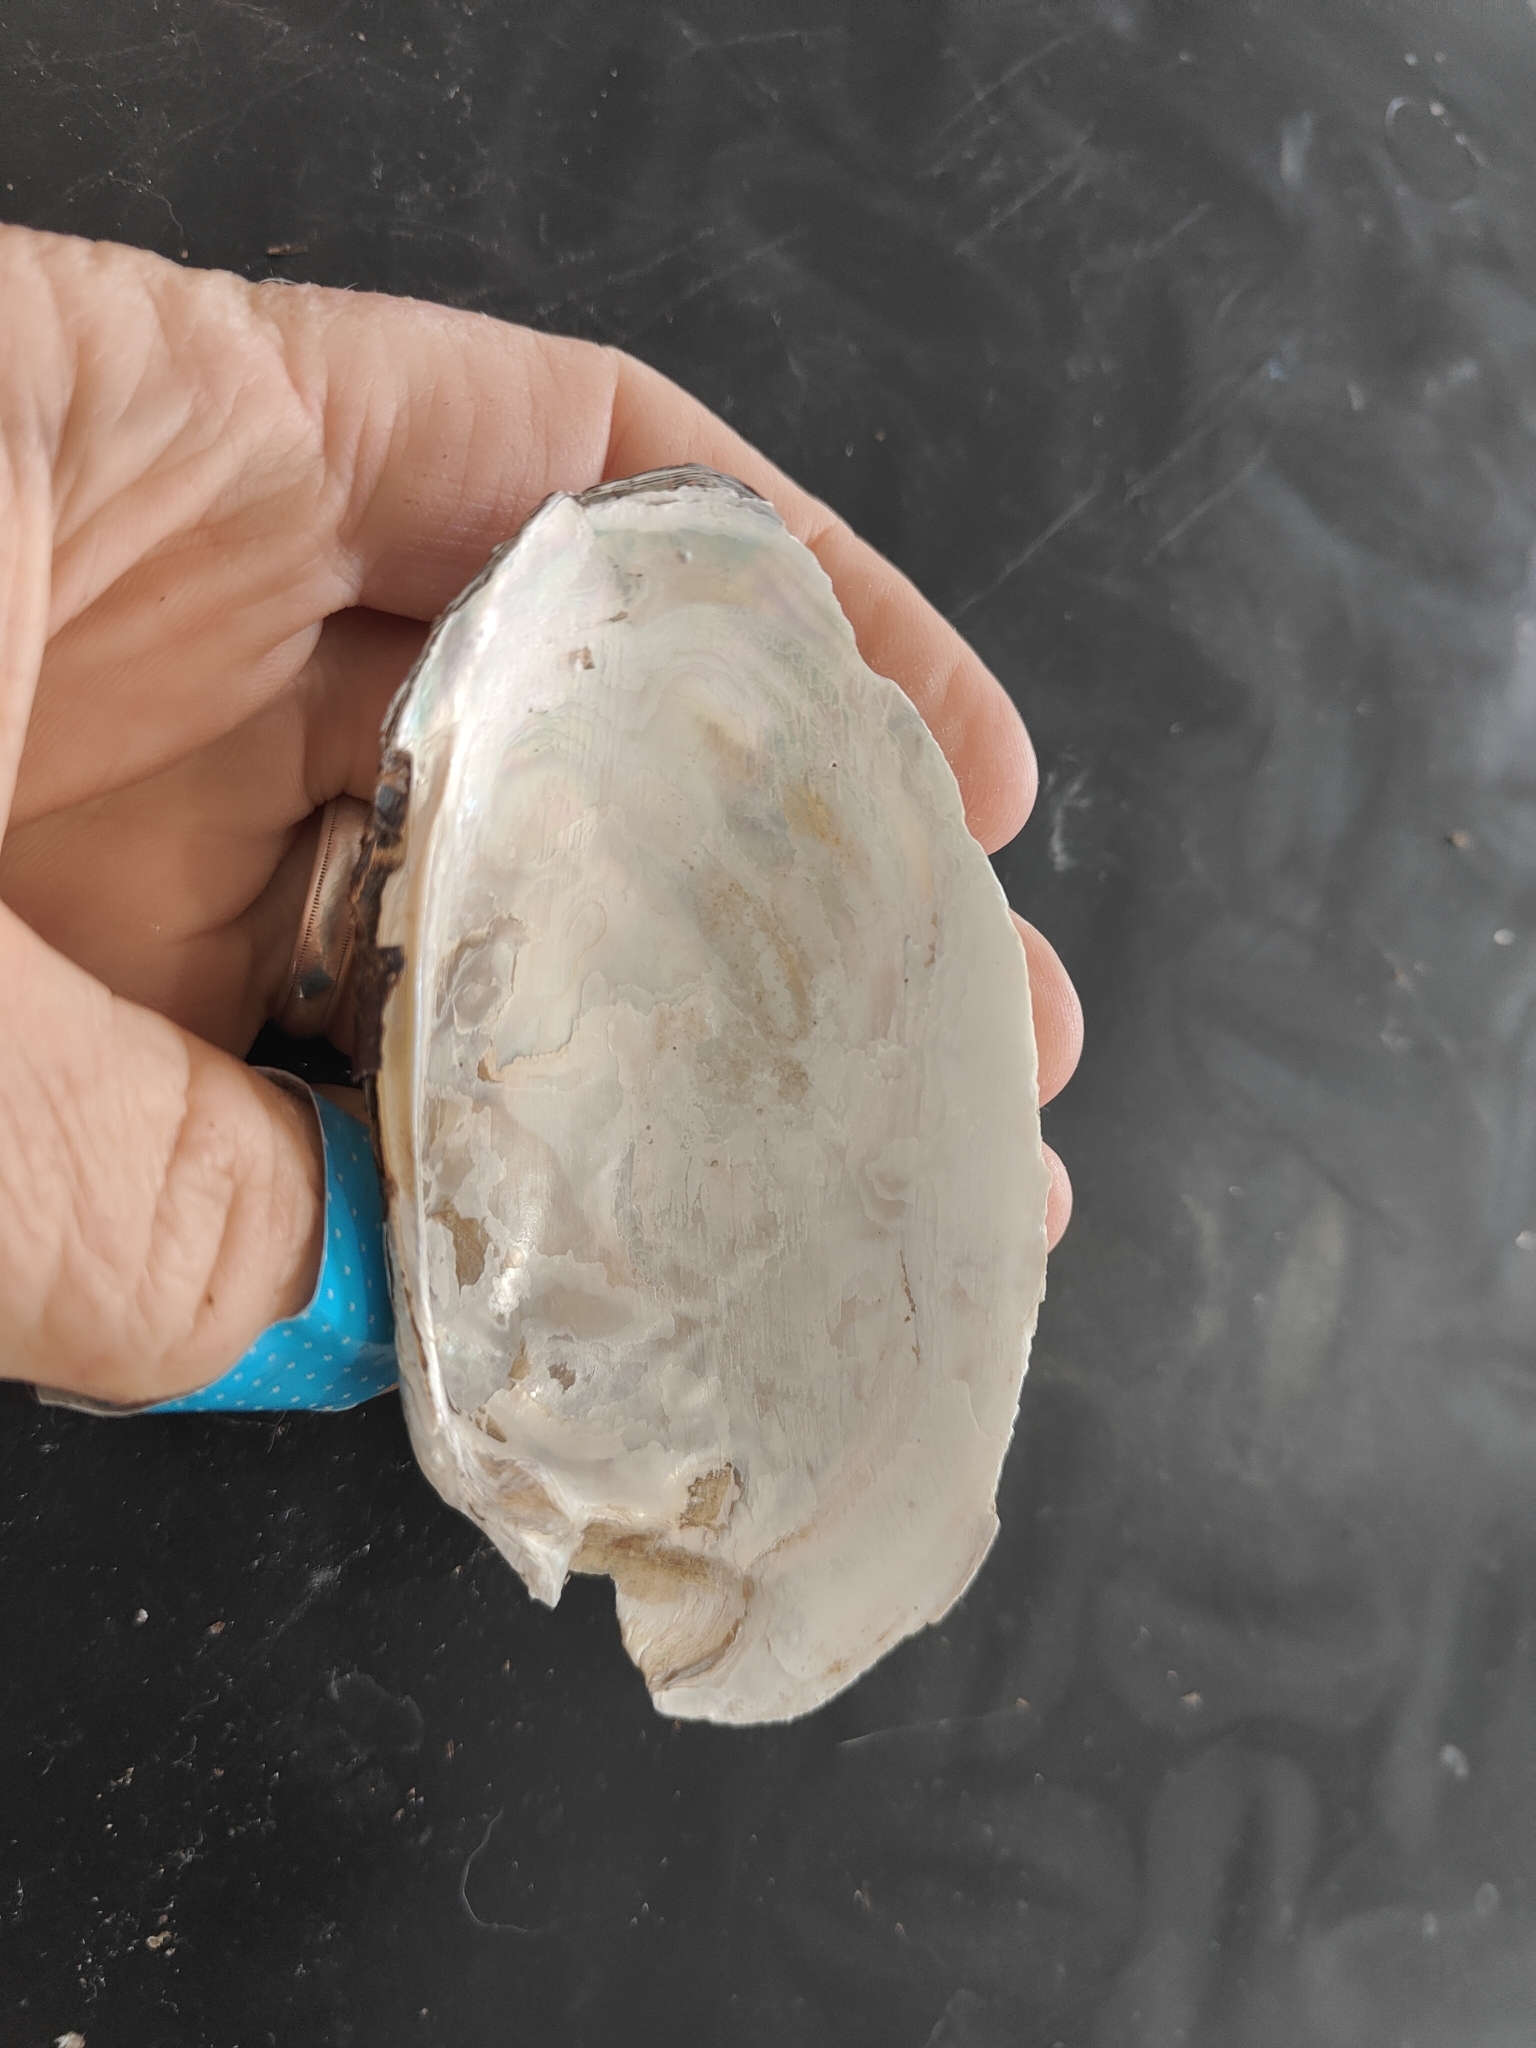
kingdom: Animalia
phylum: Mollusca
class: Bivalvia
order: Unionida
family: Unionidae
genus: Lampsilis
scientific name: Lampsilis siliquoidea
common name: Fatmucket
